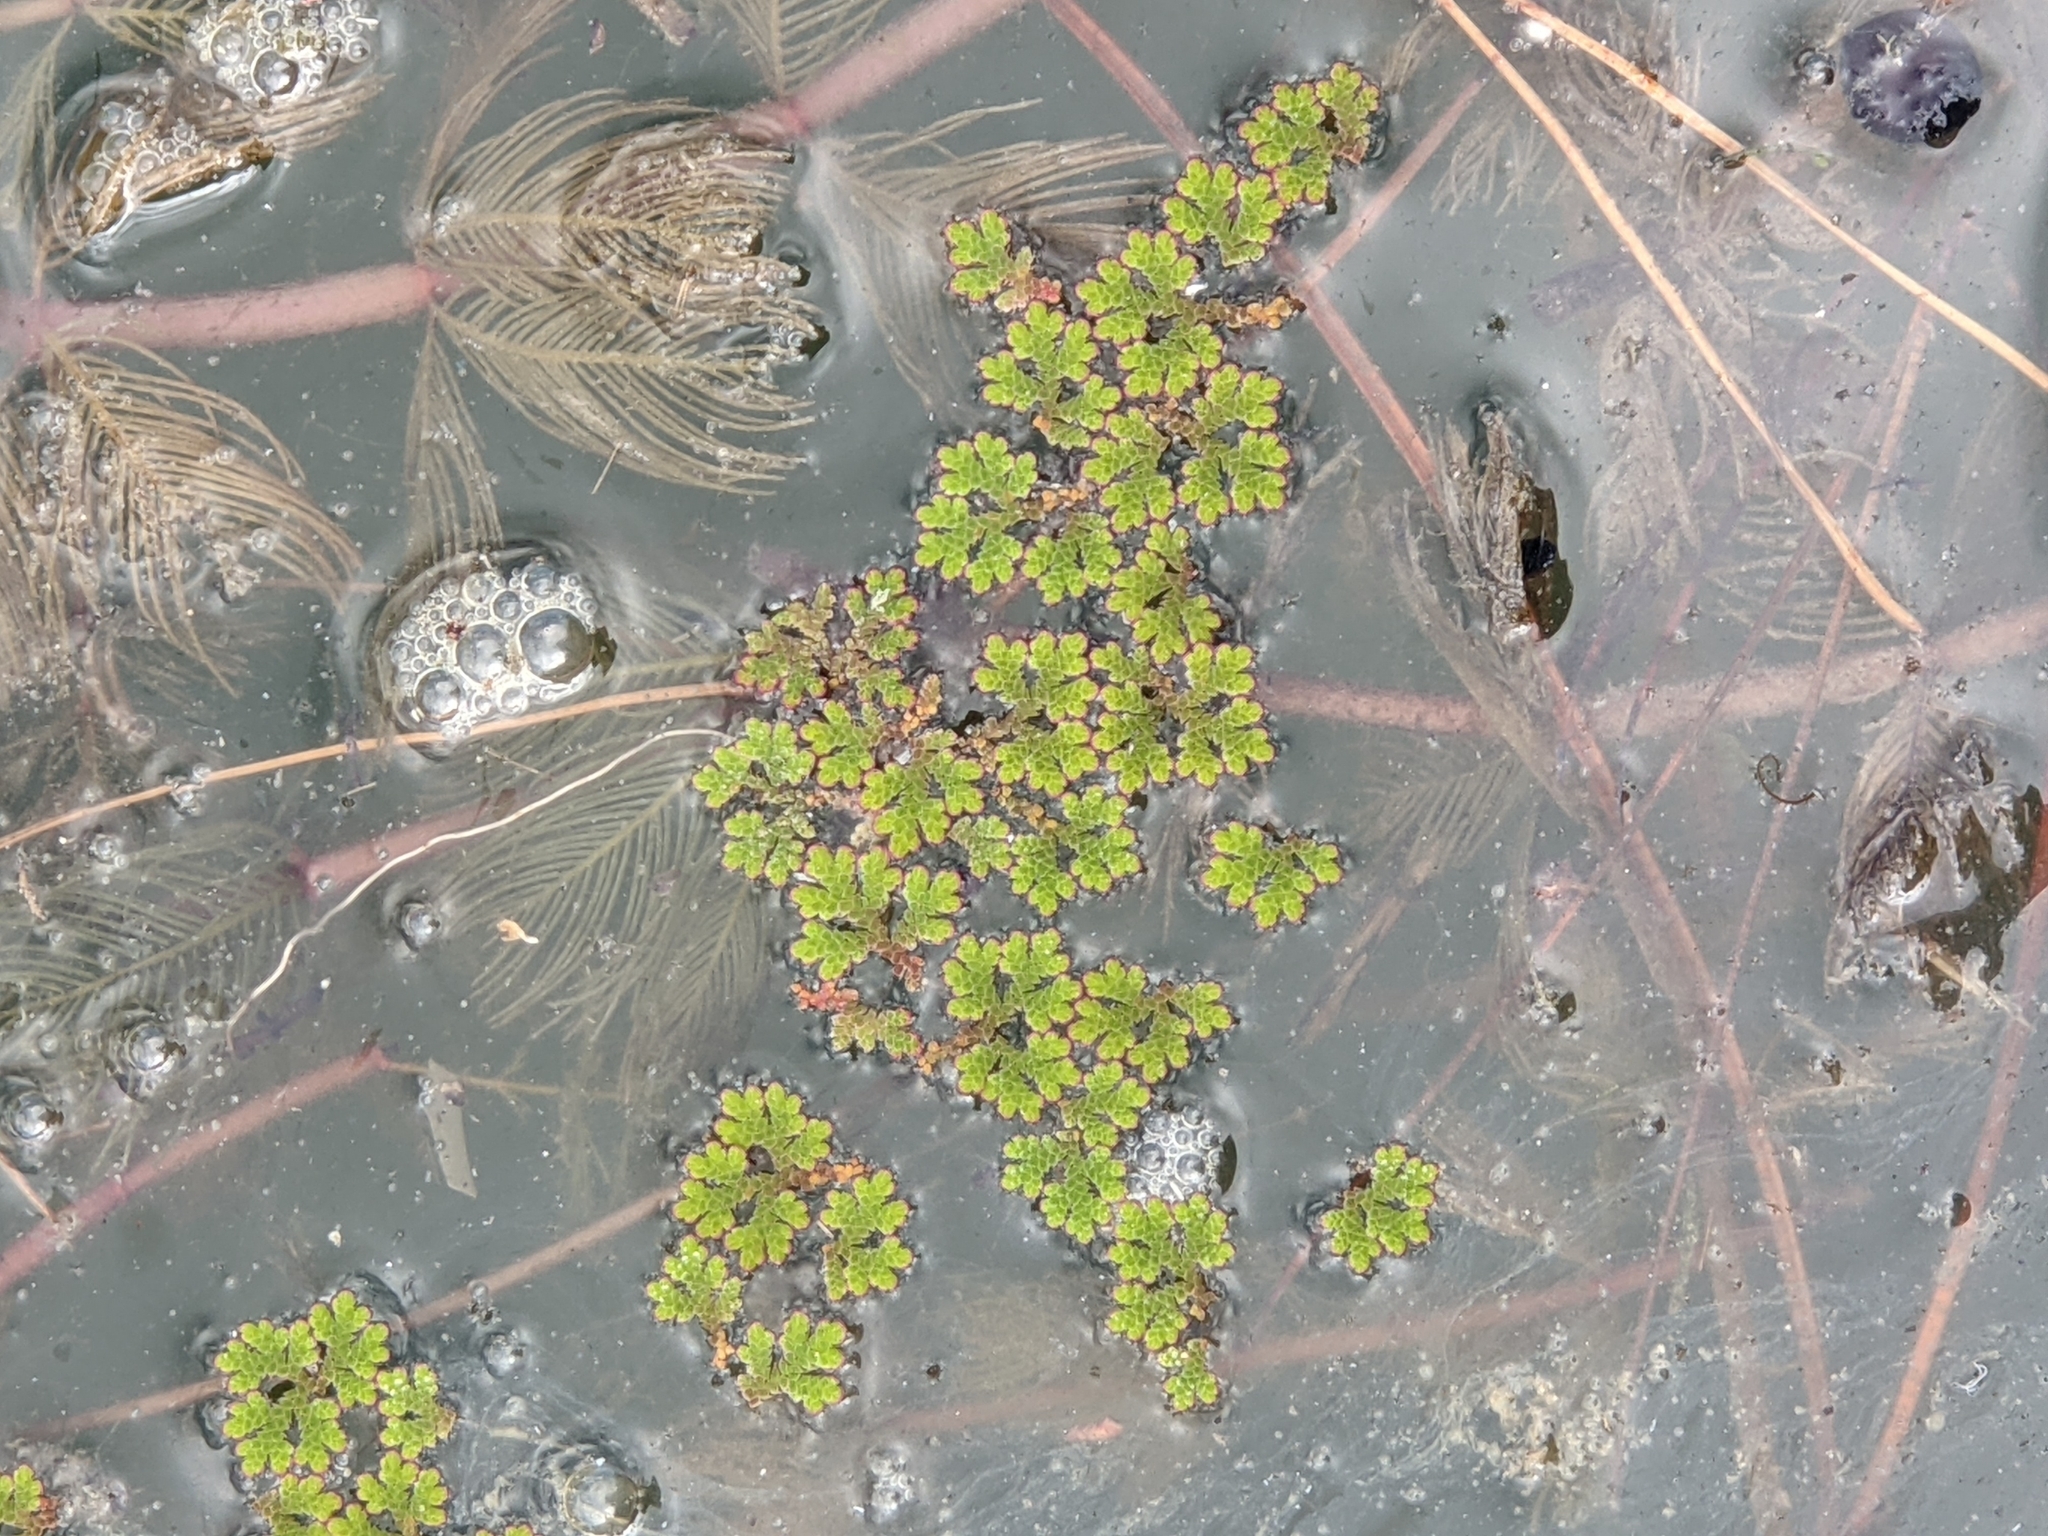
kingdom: Plantae
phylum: Tracheophyta
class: Polypodiopsida
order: Salviniales
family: Salviniaceae
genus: Azolla
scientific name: Azolla filiculoides
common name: Water fern
